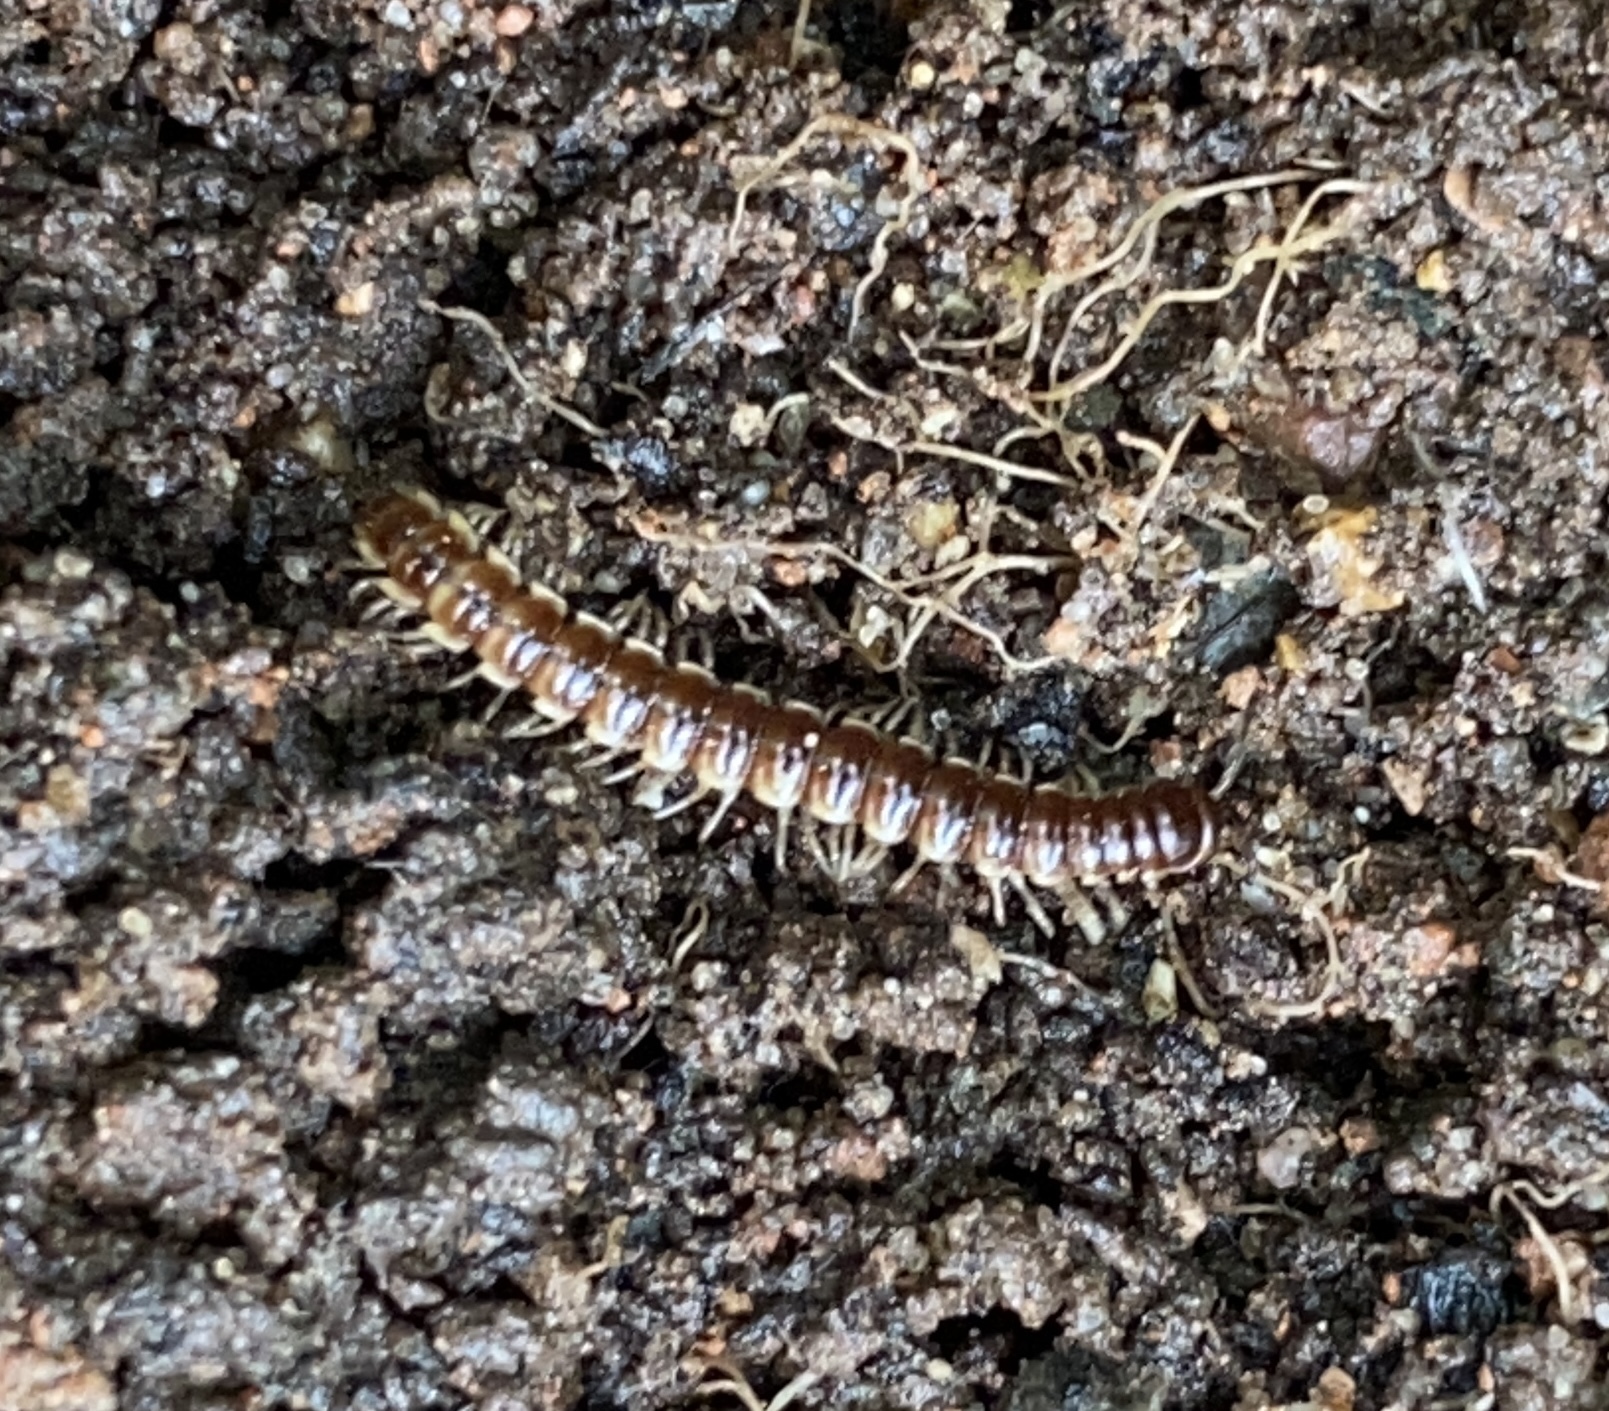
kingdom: Animalia
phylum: Arthropoda
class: Diplopoda
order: Polydesmida
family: Paradoxosomatidae
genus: Oxidus
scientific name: Oxidus gracilis
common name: Greenhouse millipede
